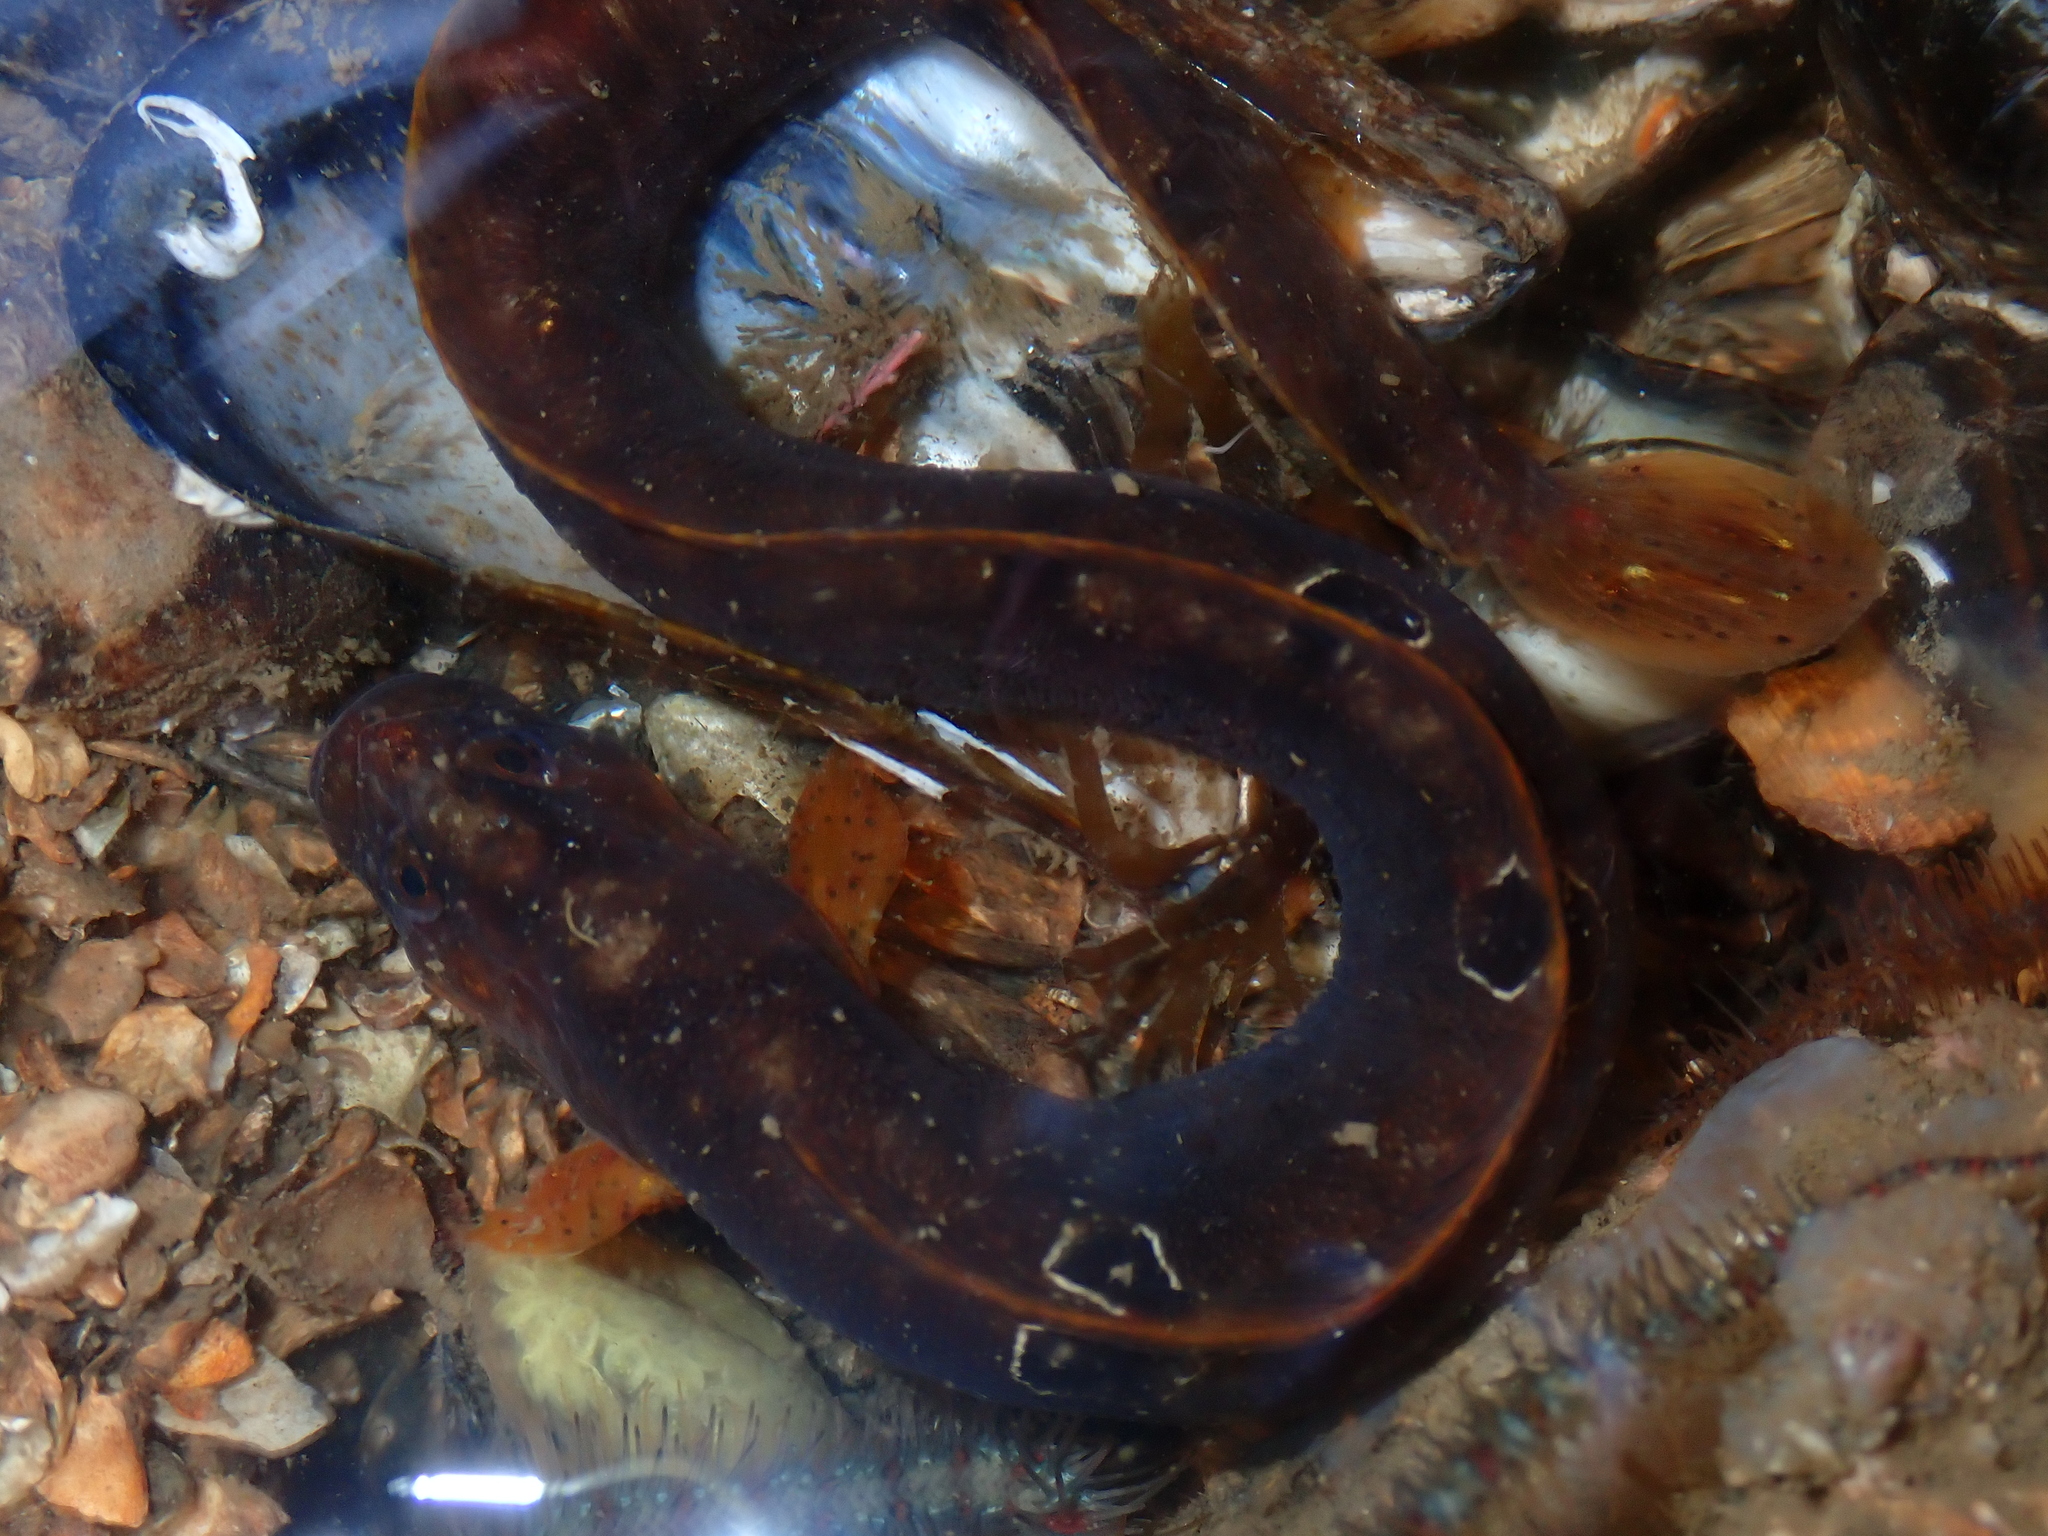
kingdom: Animalia
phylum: Chordata
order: Perciformes
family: Pholidae
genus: Pholis
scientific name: Pholis gunnellus
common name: Butterfish
